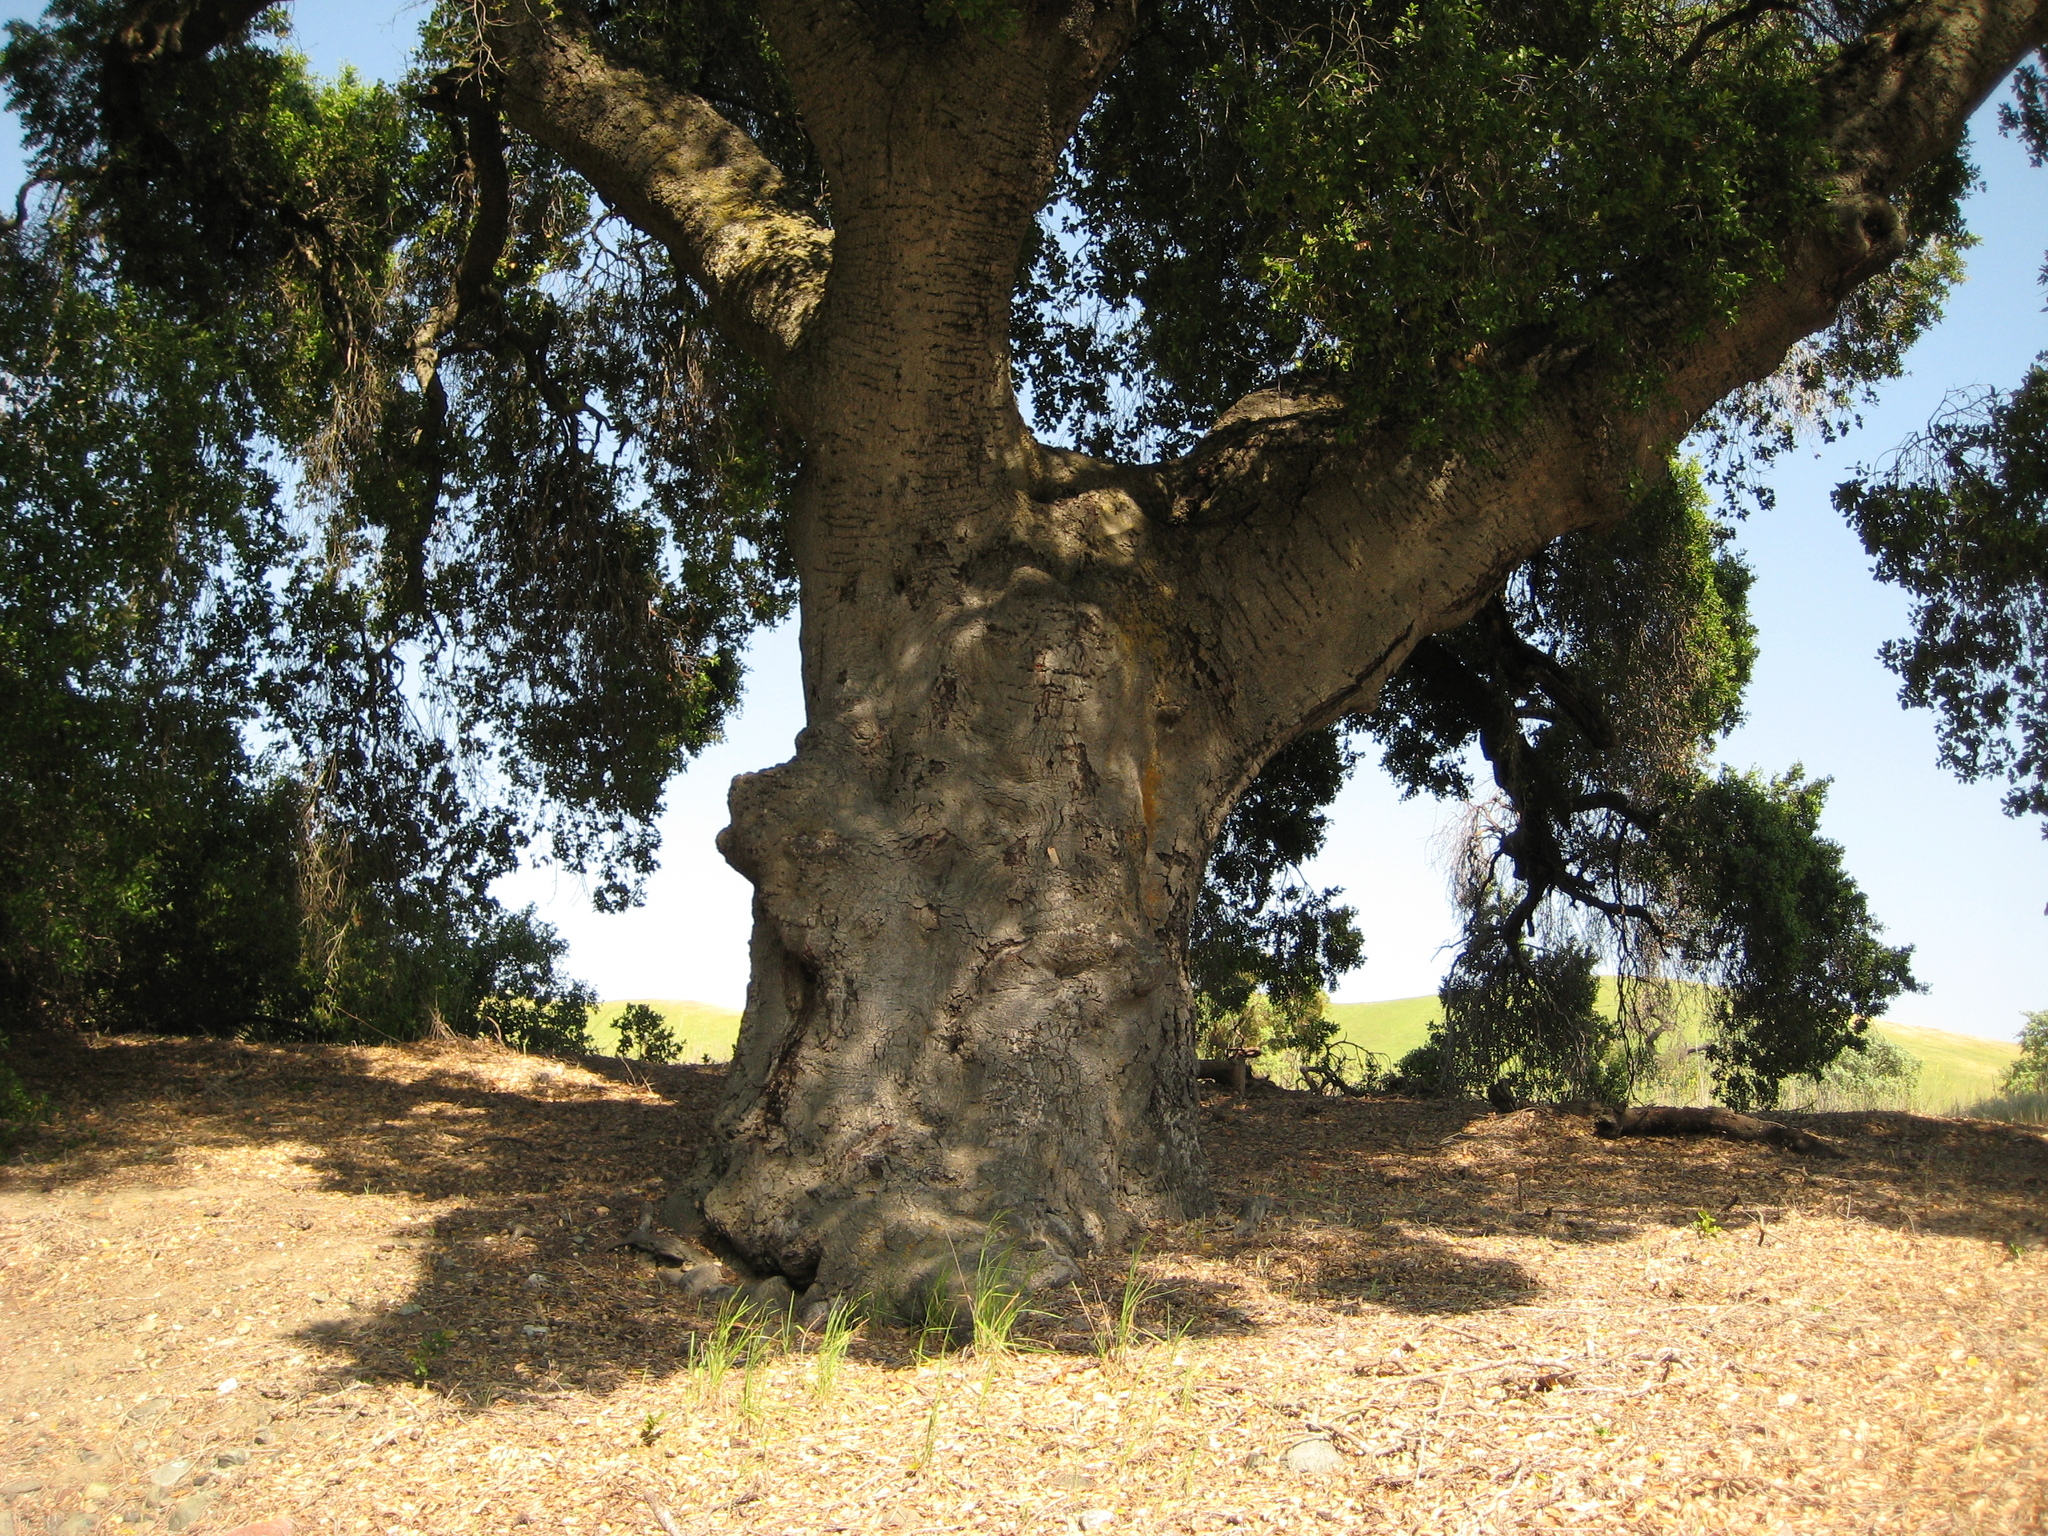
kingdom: Plantae
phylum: Tracheophyta
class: Magnoliopsida
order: Fagales
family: Fagaceae
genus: Quercus
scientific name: Quercus agrifolia
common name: California live oak
